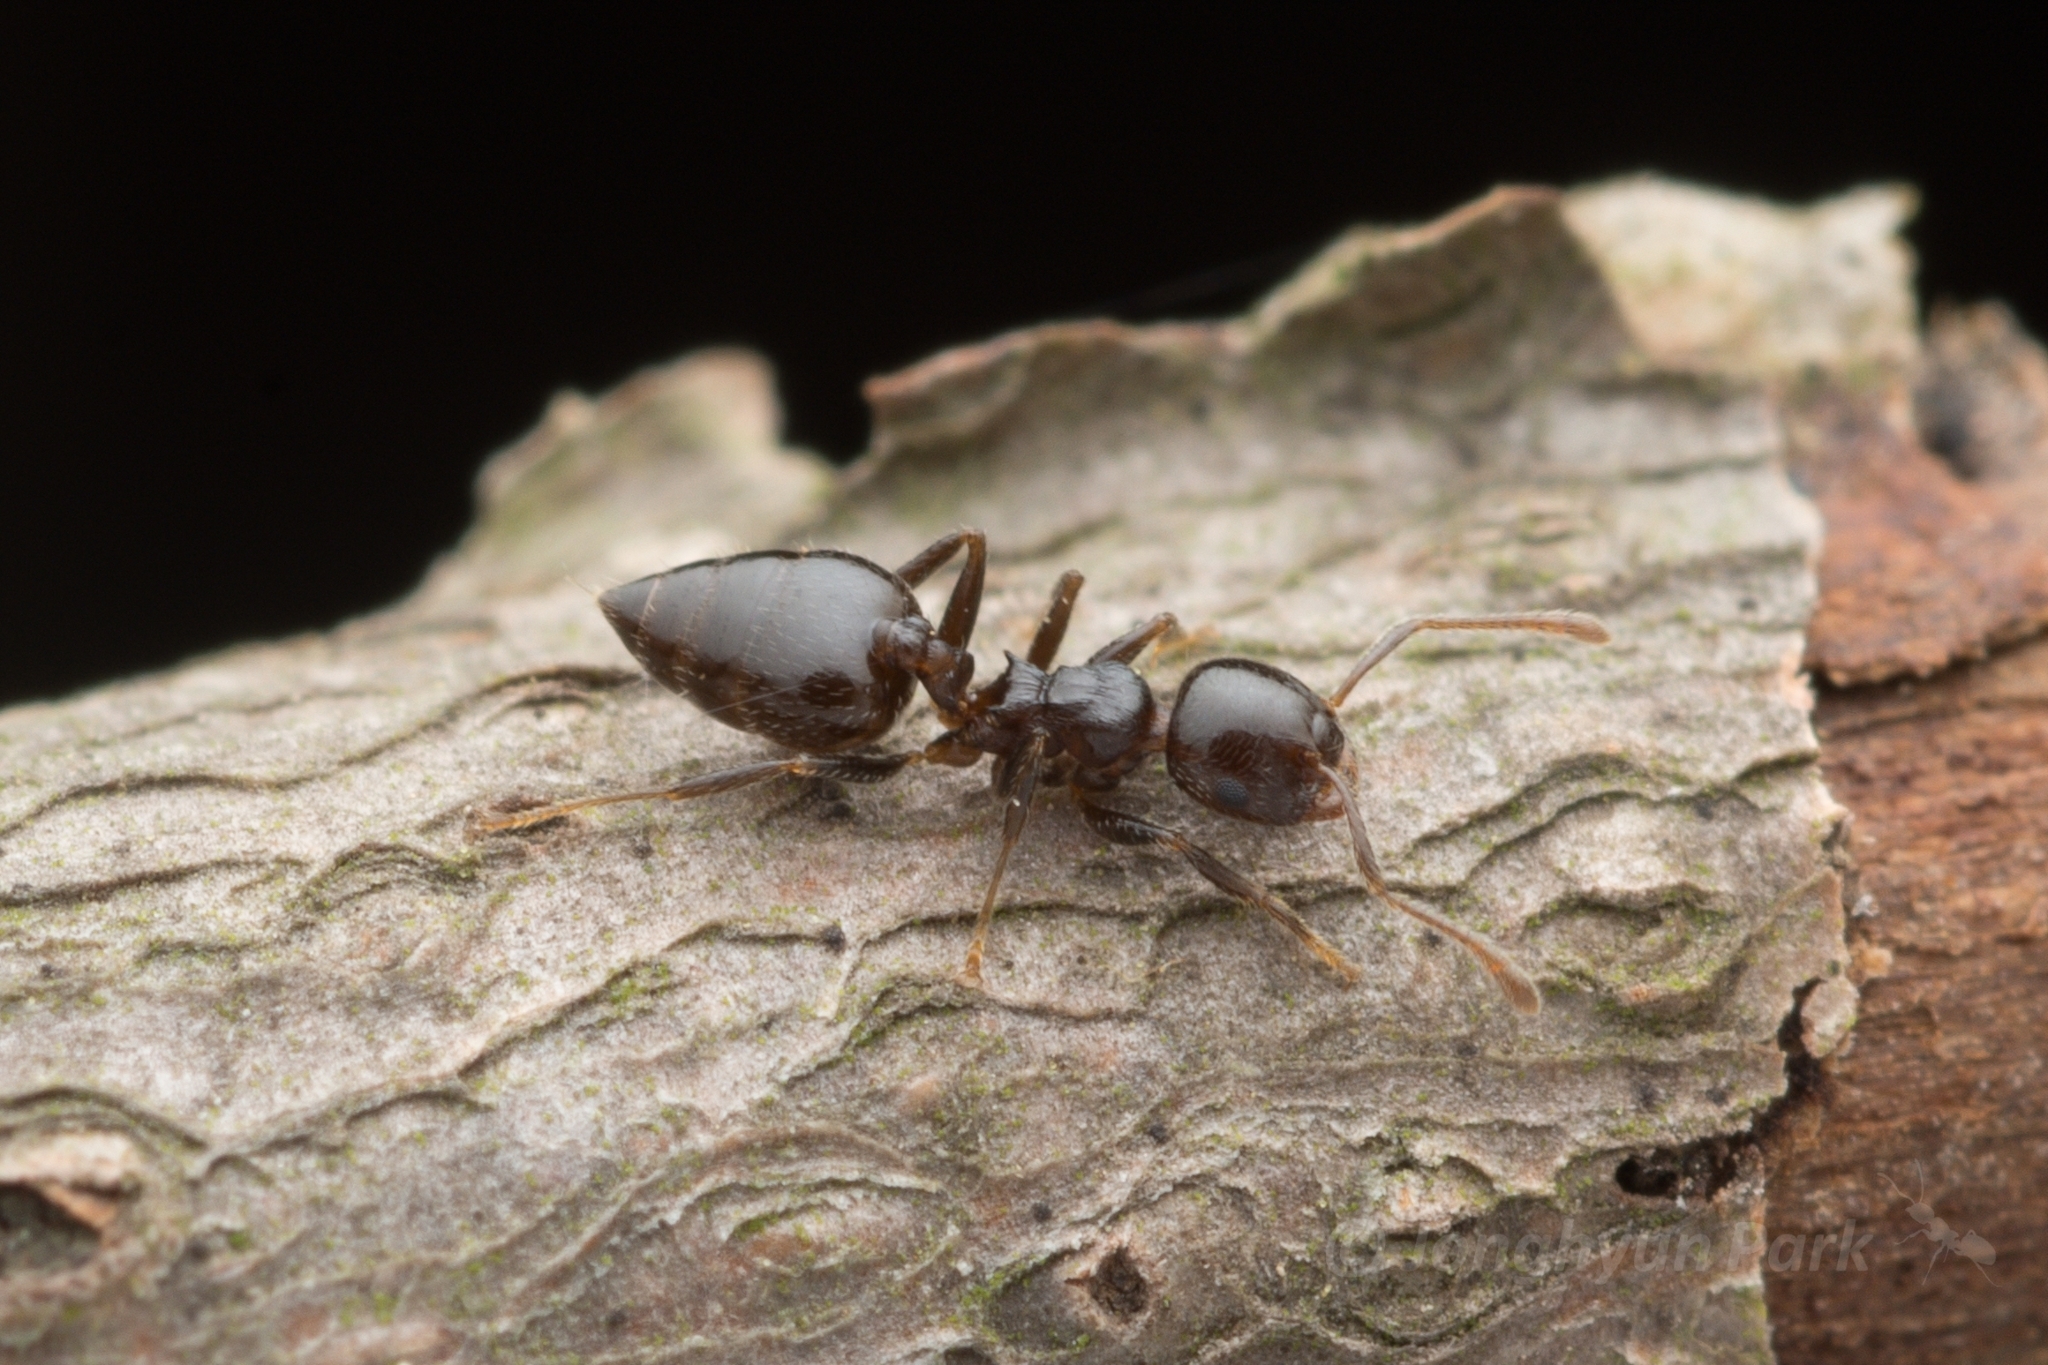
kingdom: Animalia
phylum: Arthropoda
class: Insecta
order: Hymenoptera
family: Formicidae
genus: Crematogaster
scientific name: Crematogaster matsumurai
